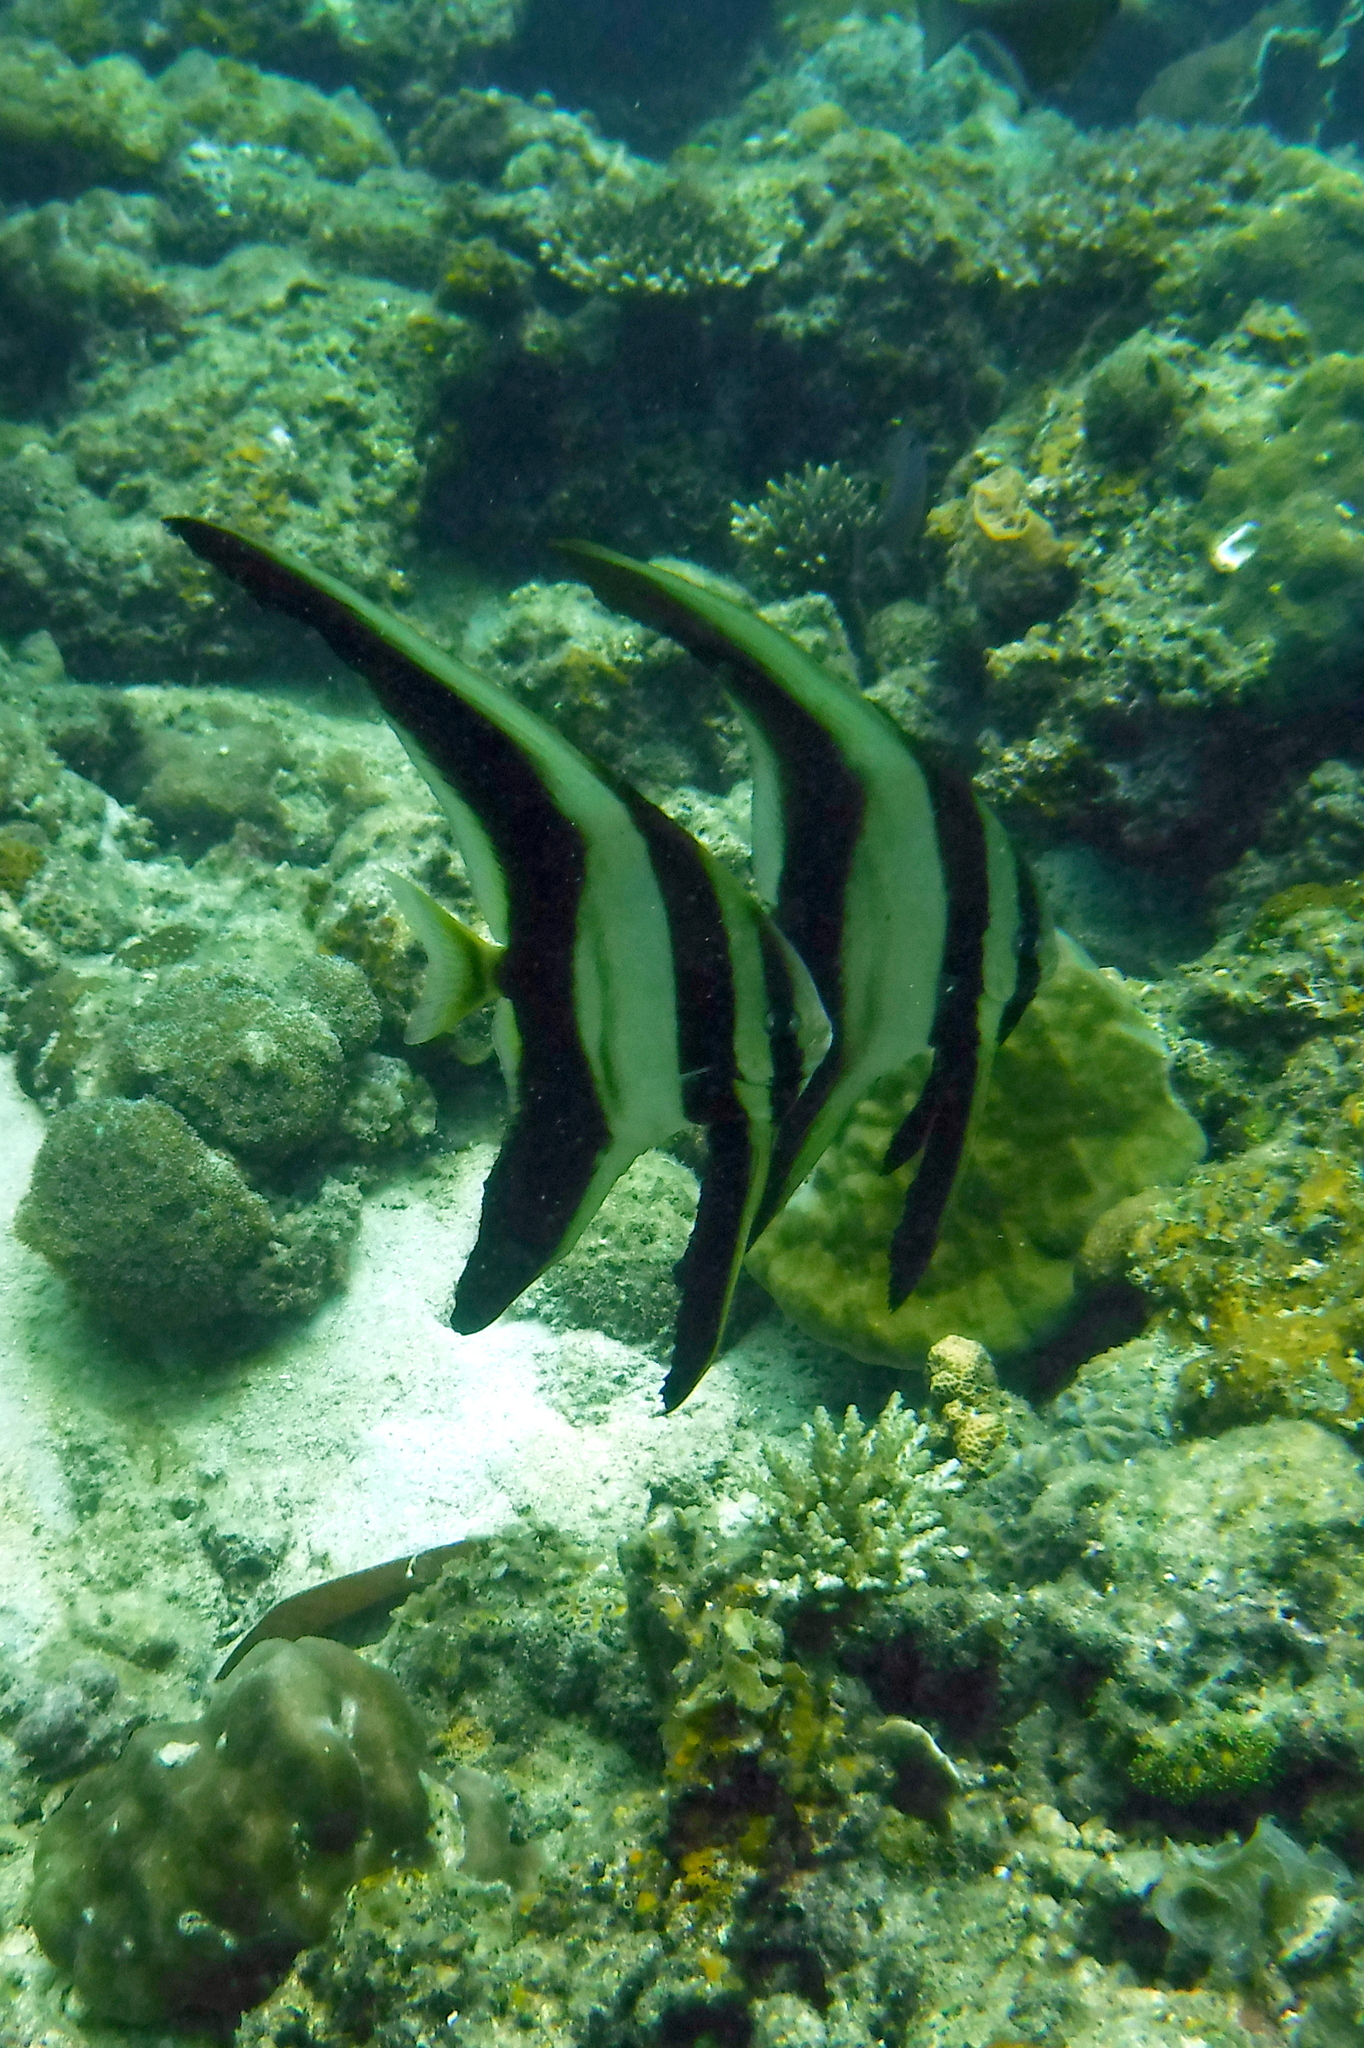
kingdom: Animalia
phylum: Chordata
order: Perciformes
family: Ephippidae
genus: Platax
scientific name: Platax teira
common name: Longfin baitfish
